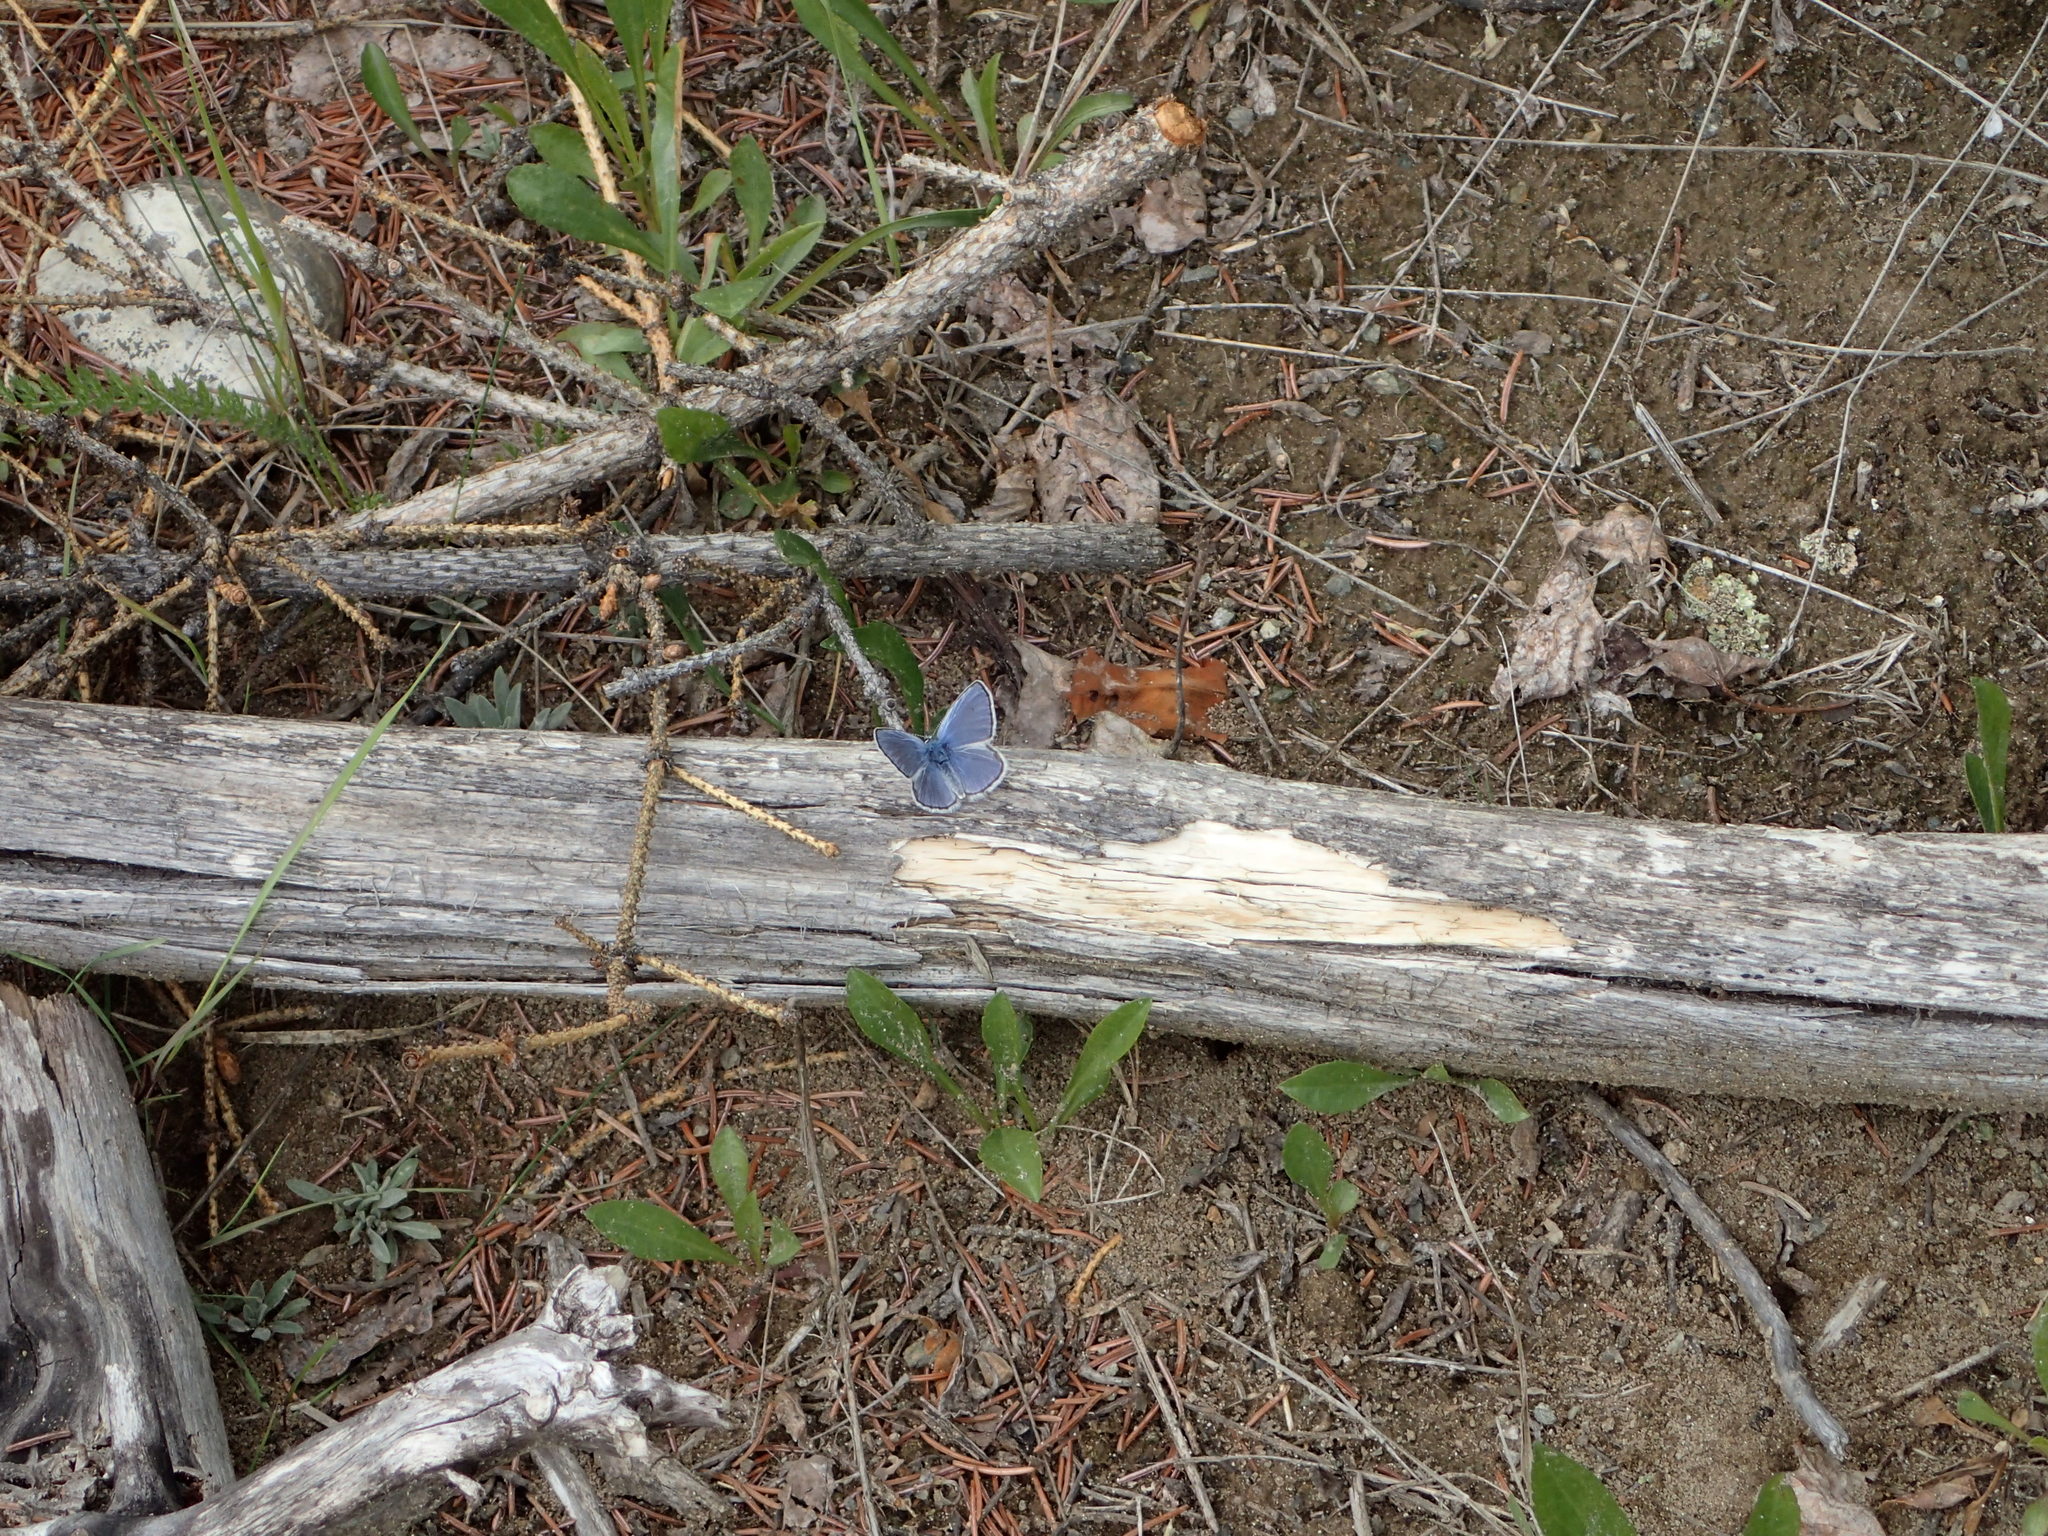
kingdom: Animalia
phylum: Arthropoda
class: Insecta
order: Lepidoptera
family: Lycaenidae
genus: Lycaeides
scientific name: Lycaeides idas
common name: Northern blue
